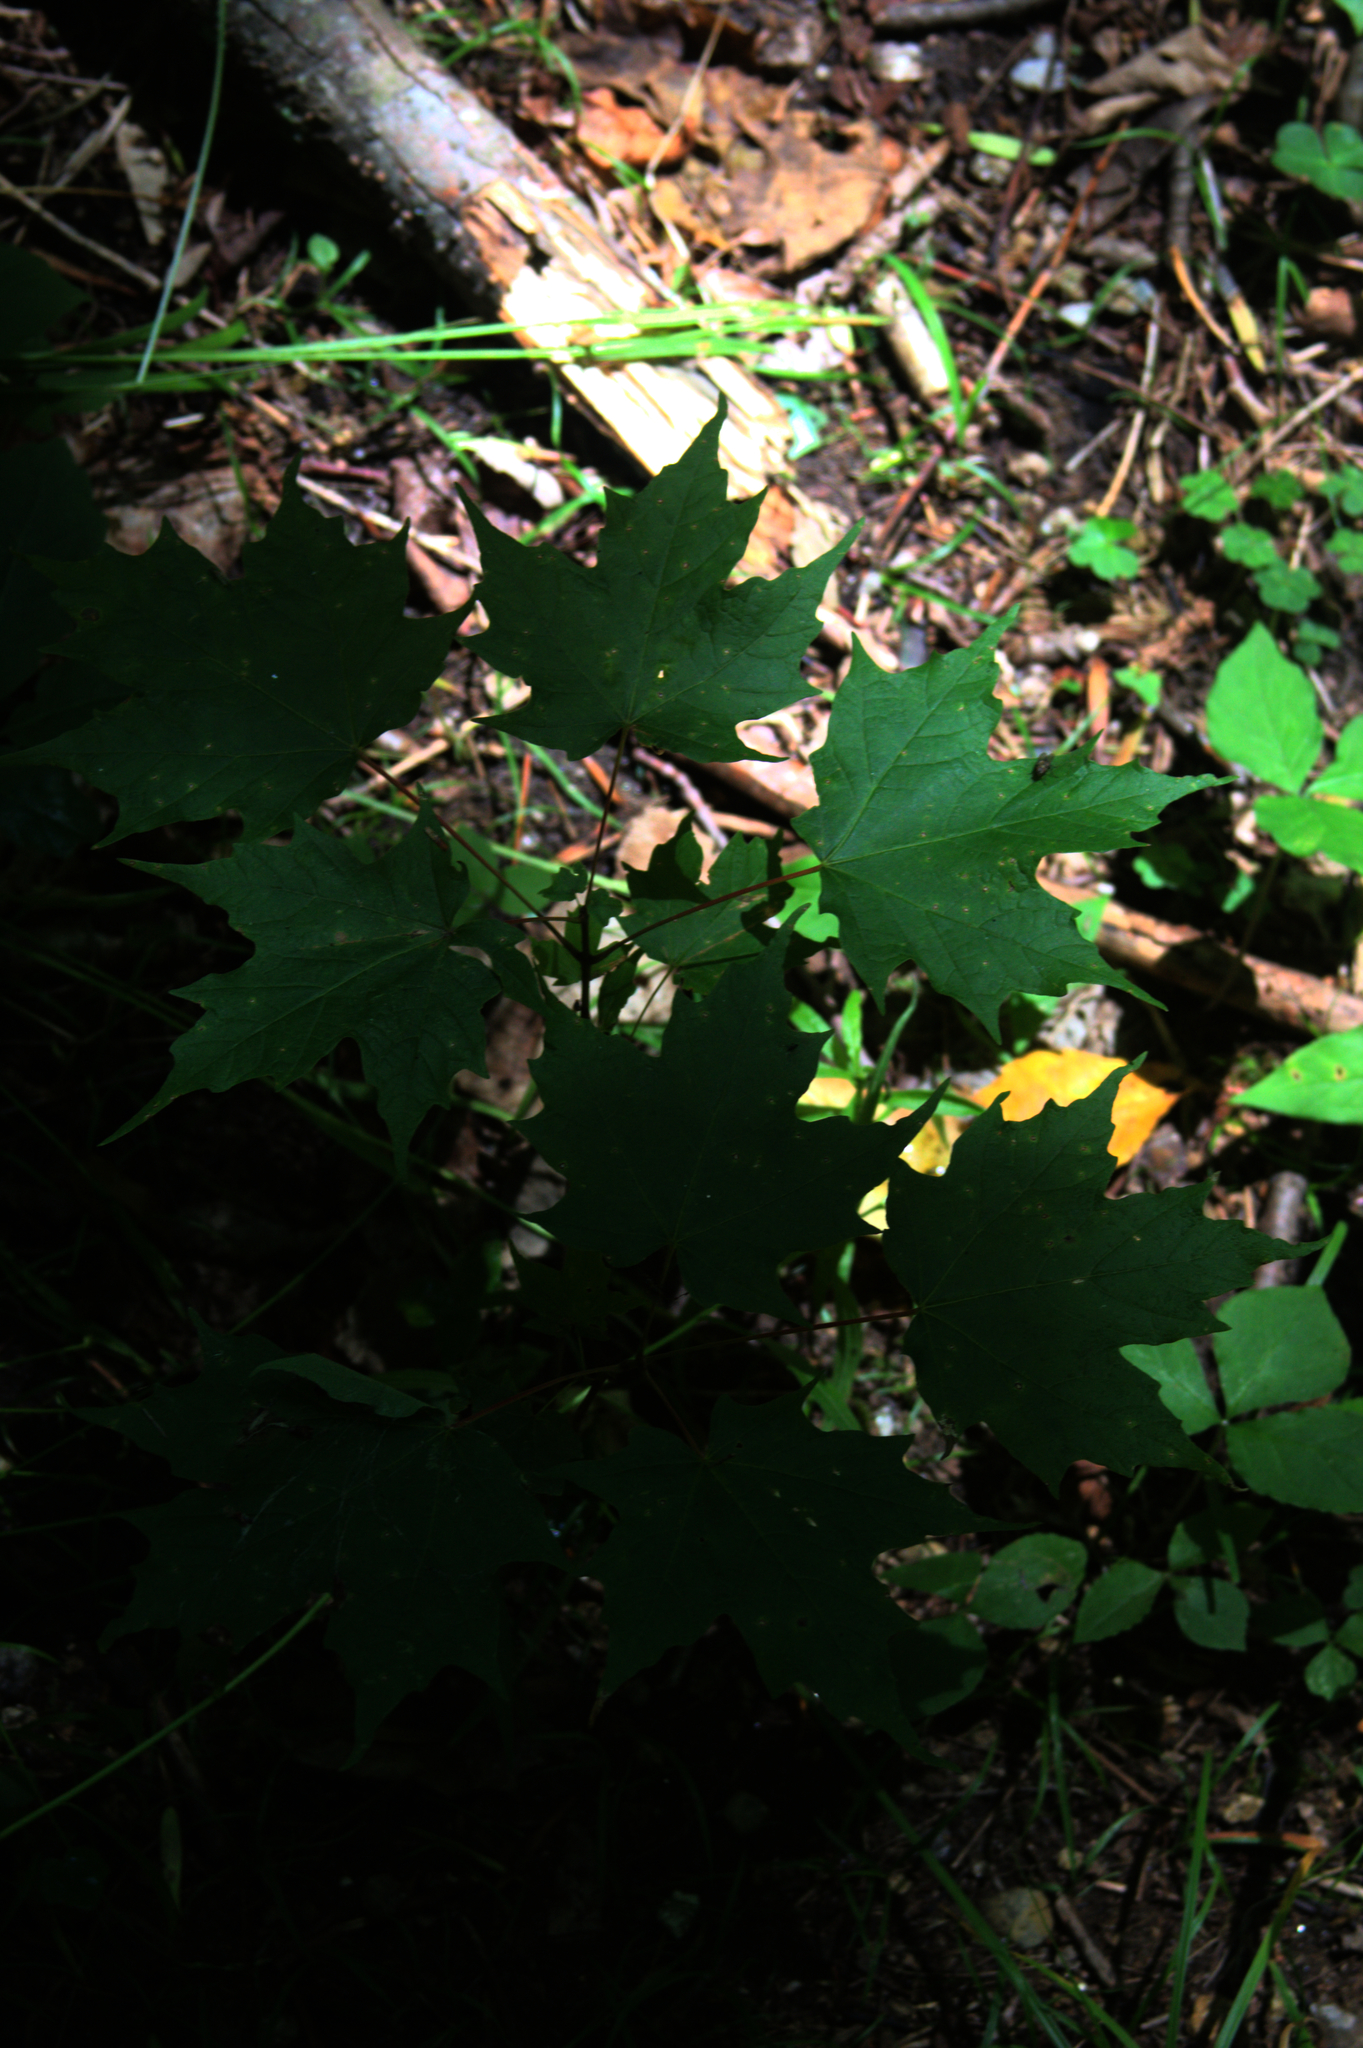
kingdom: Plantae
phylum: Tracheophyta
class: Magnoliopsida
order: Sapindales
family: Sapindaceae
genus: Acer
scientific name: Acer saccharum
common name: Sugar maple
